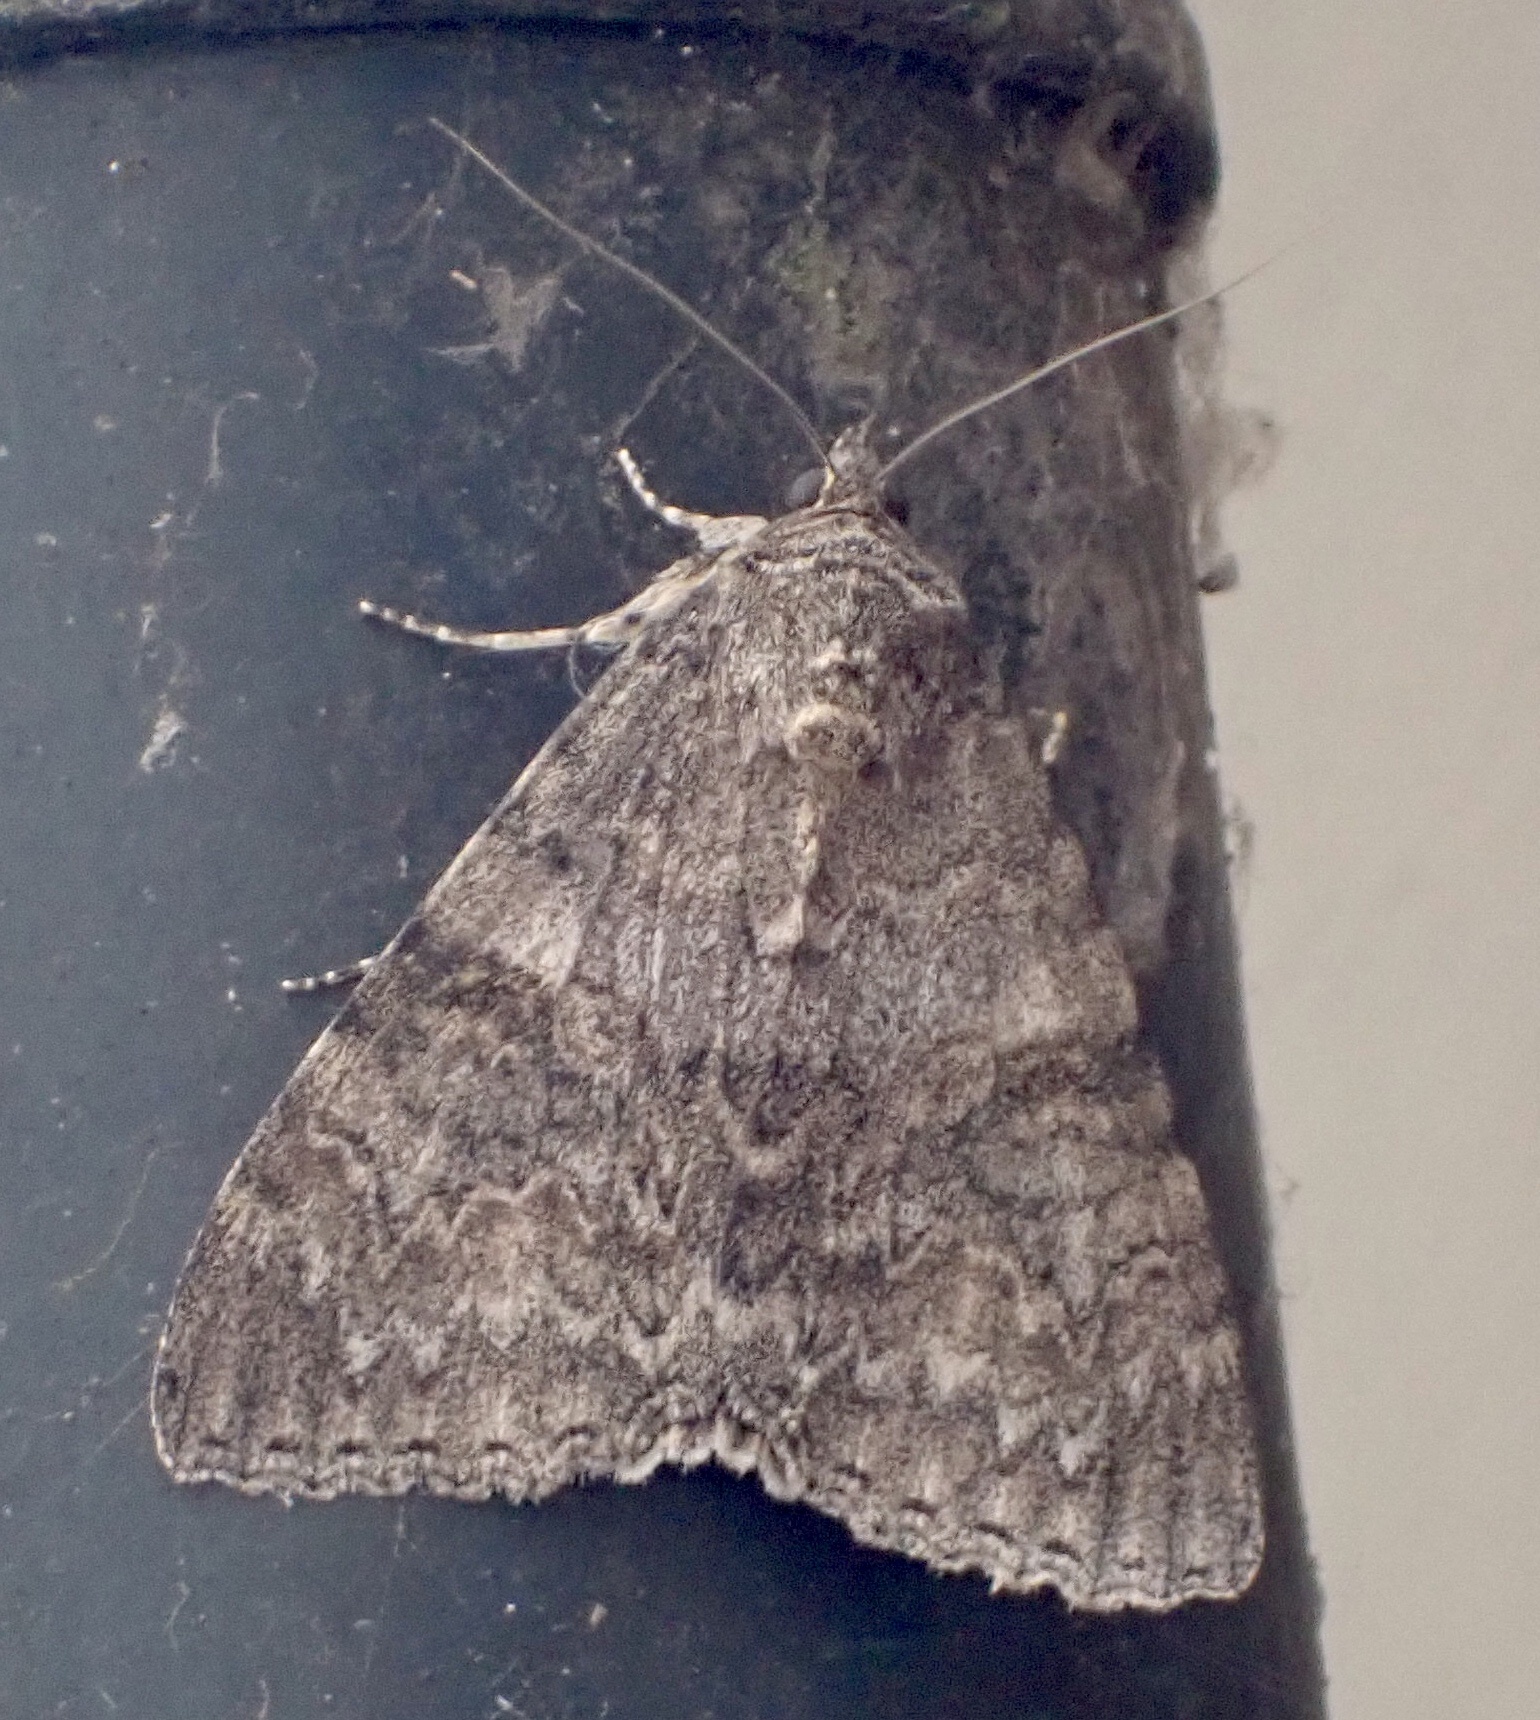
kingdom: Animalia
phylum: Arthropoda
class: Insecta
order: Lepidoptera
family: Erebidae
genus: Catocala
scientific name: Catocala nupta
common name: Red underwing
